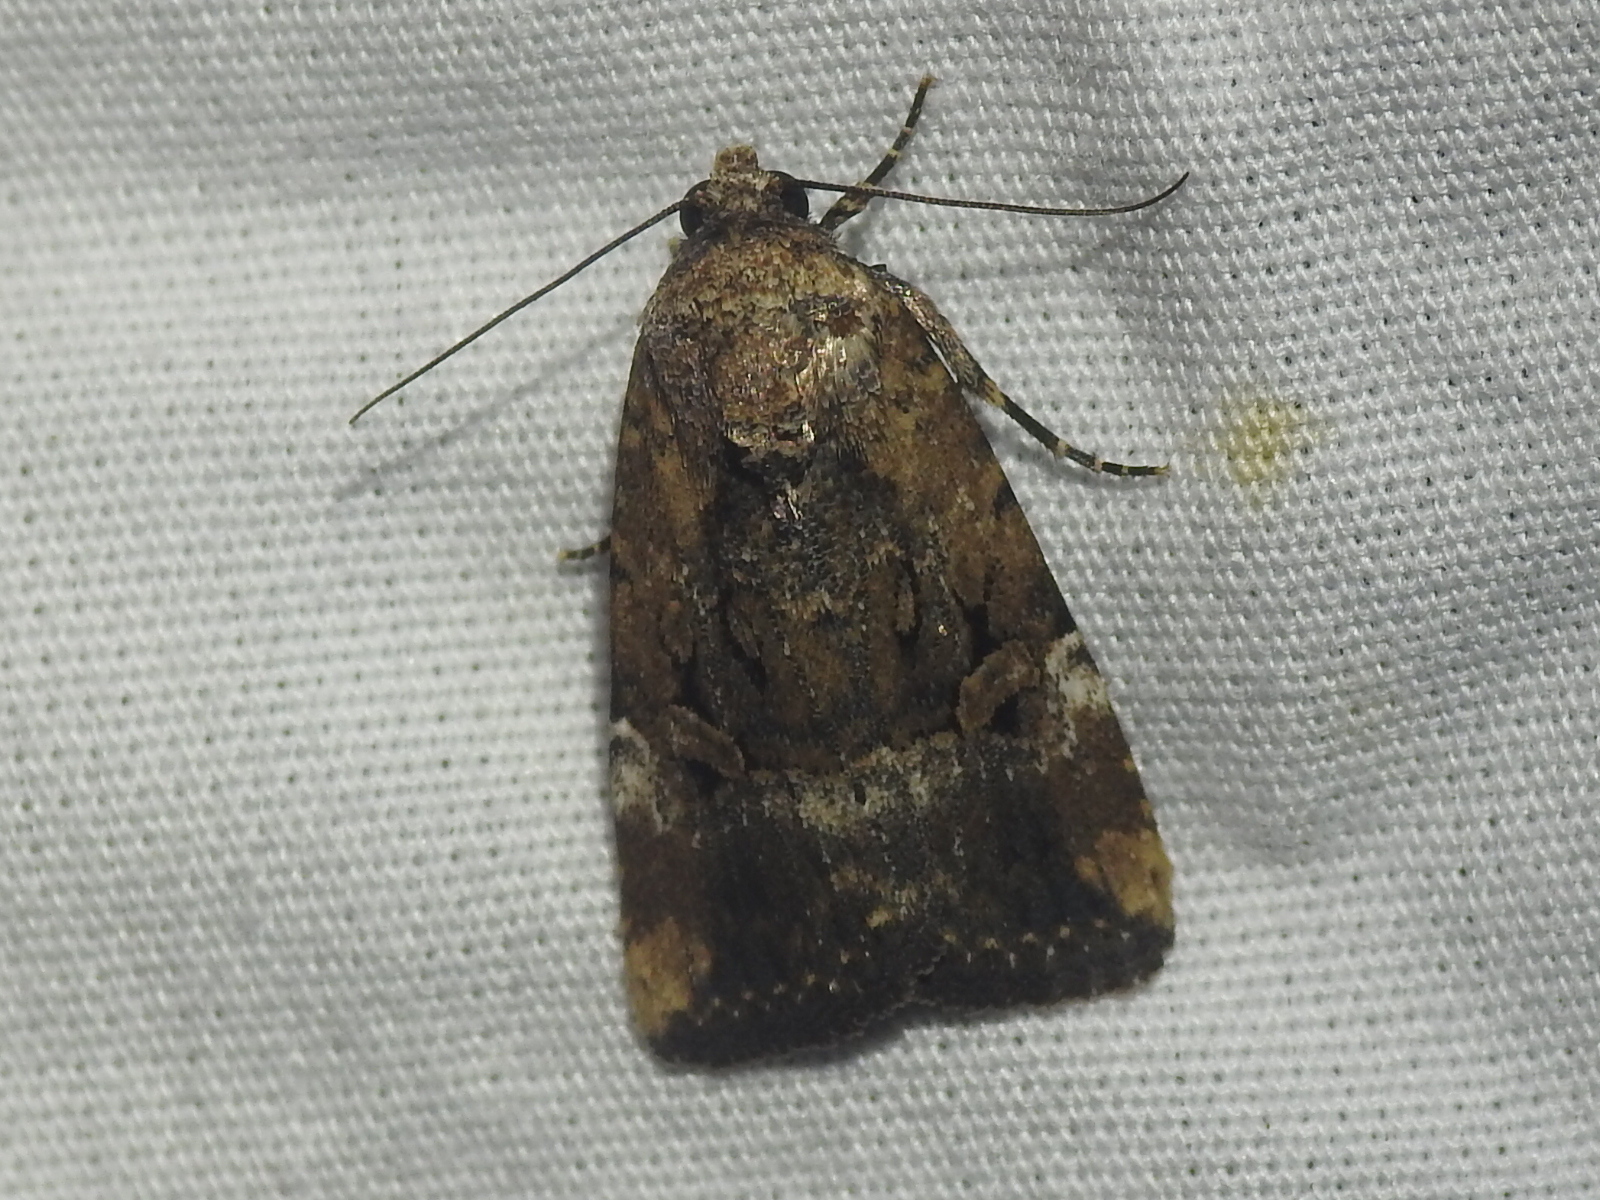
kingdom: Animalia
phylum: Arthropoda
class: Insecta
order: Lepidoptera
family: Noctuidae
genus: Elaphria
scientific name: Elaphria chalcedonia
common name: Chalcedony midget
